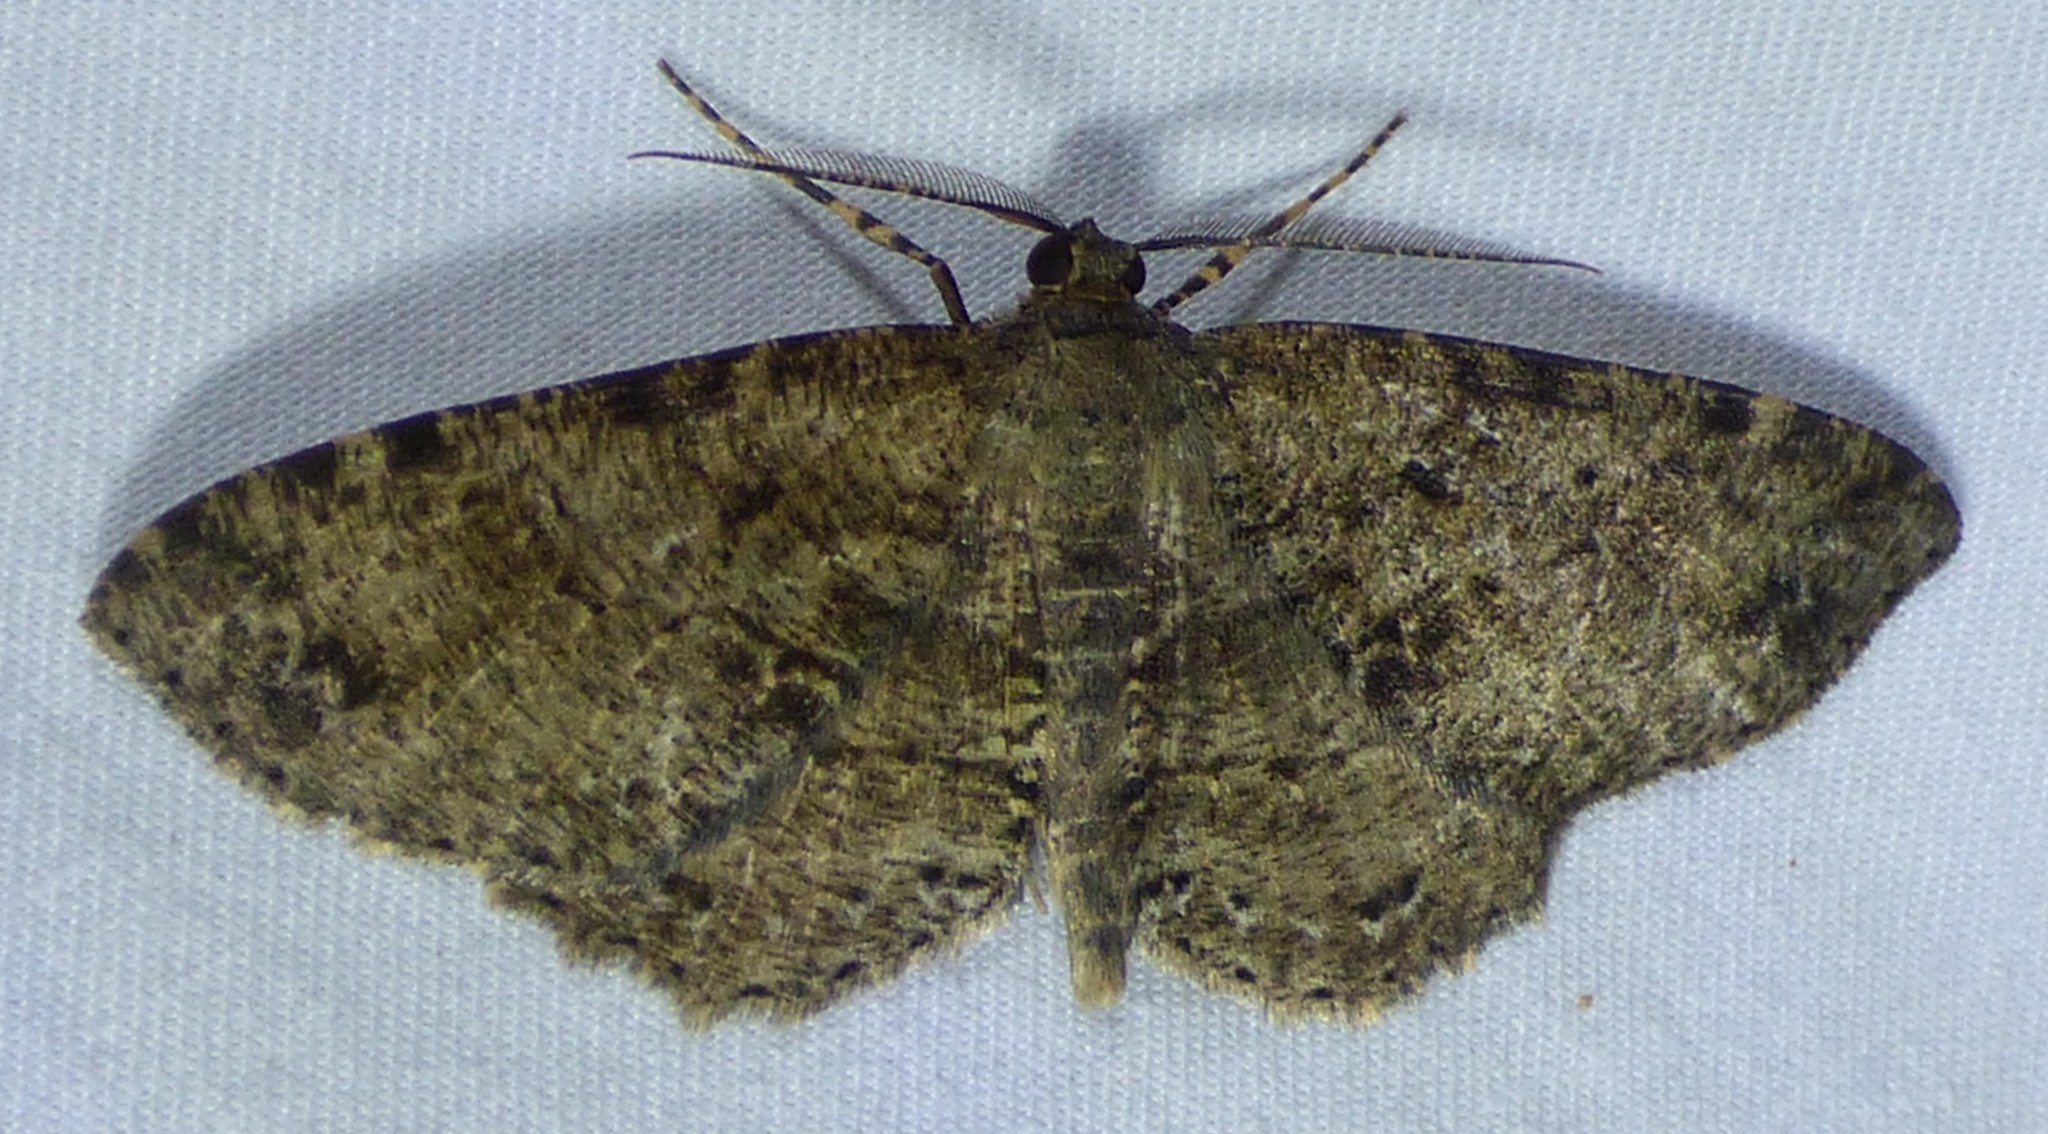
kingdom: Animalia
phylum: Arthropoda
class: Insecta
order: Lepidoptera
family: Geometridae
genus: Melanolophia
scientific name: Melanolophia canadaria
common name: Canadian melanolophia
